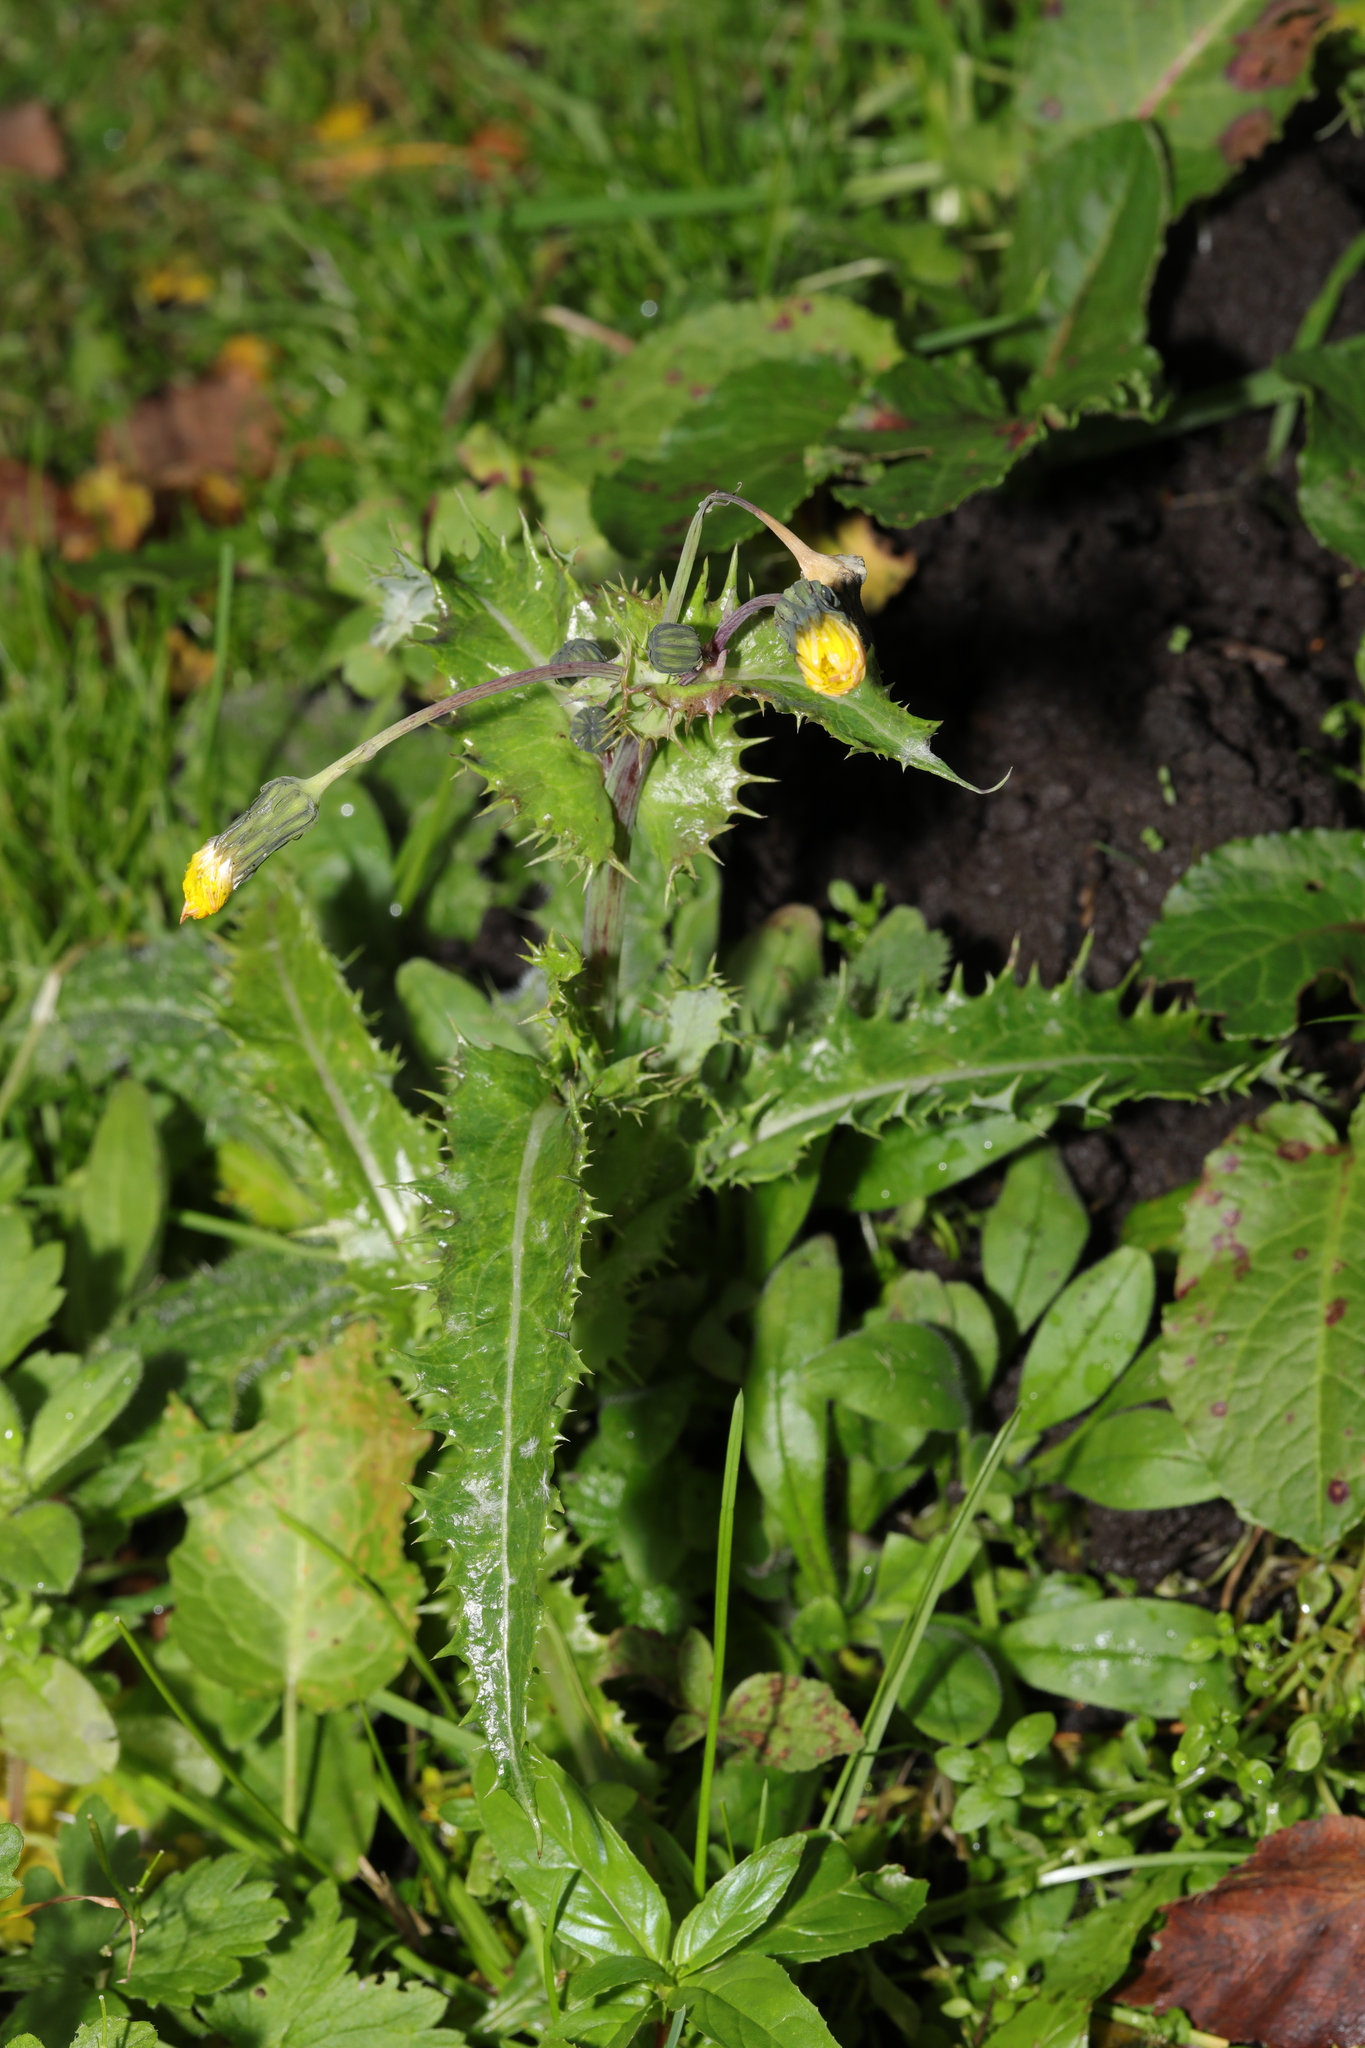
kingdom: Plantae
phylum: Tracheophyta
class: Magnoliopsida
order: Asterales
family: Asteraceae
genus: Sonchus
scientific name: Sonchus asper
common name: Prickly sow-thistle
